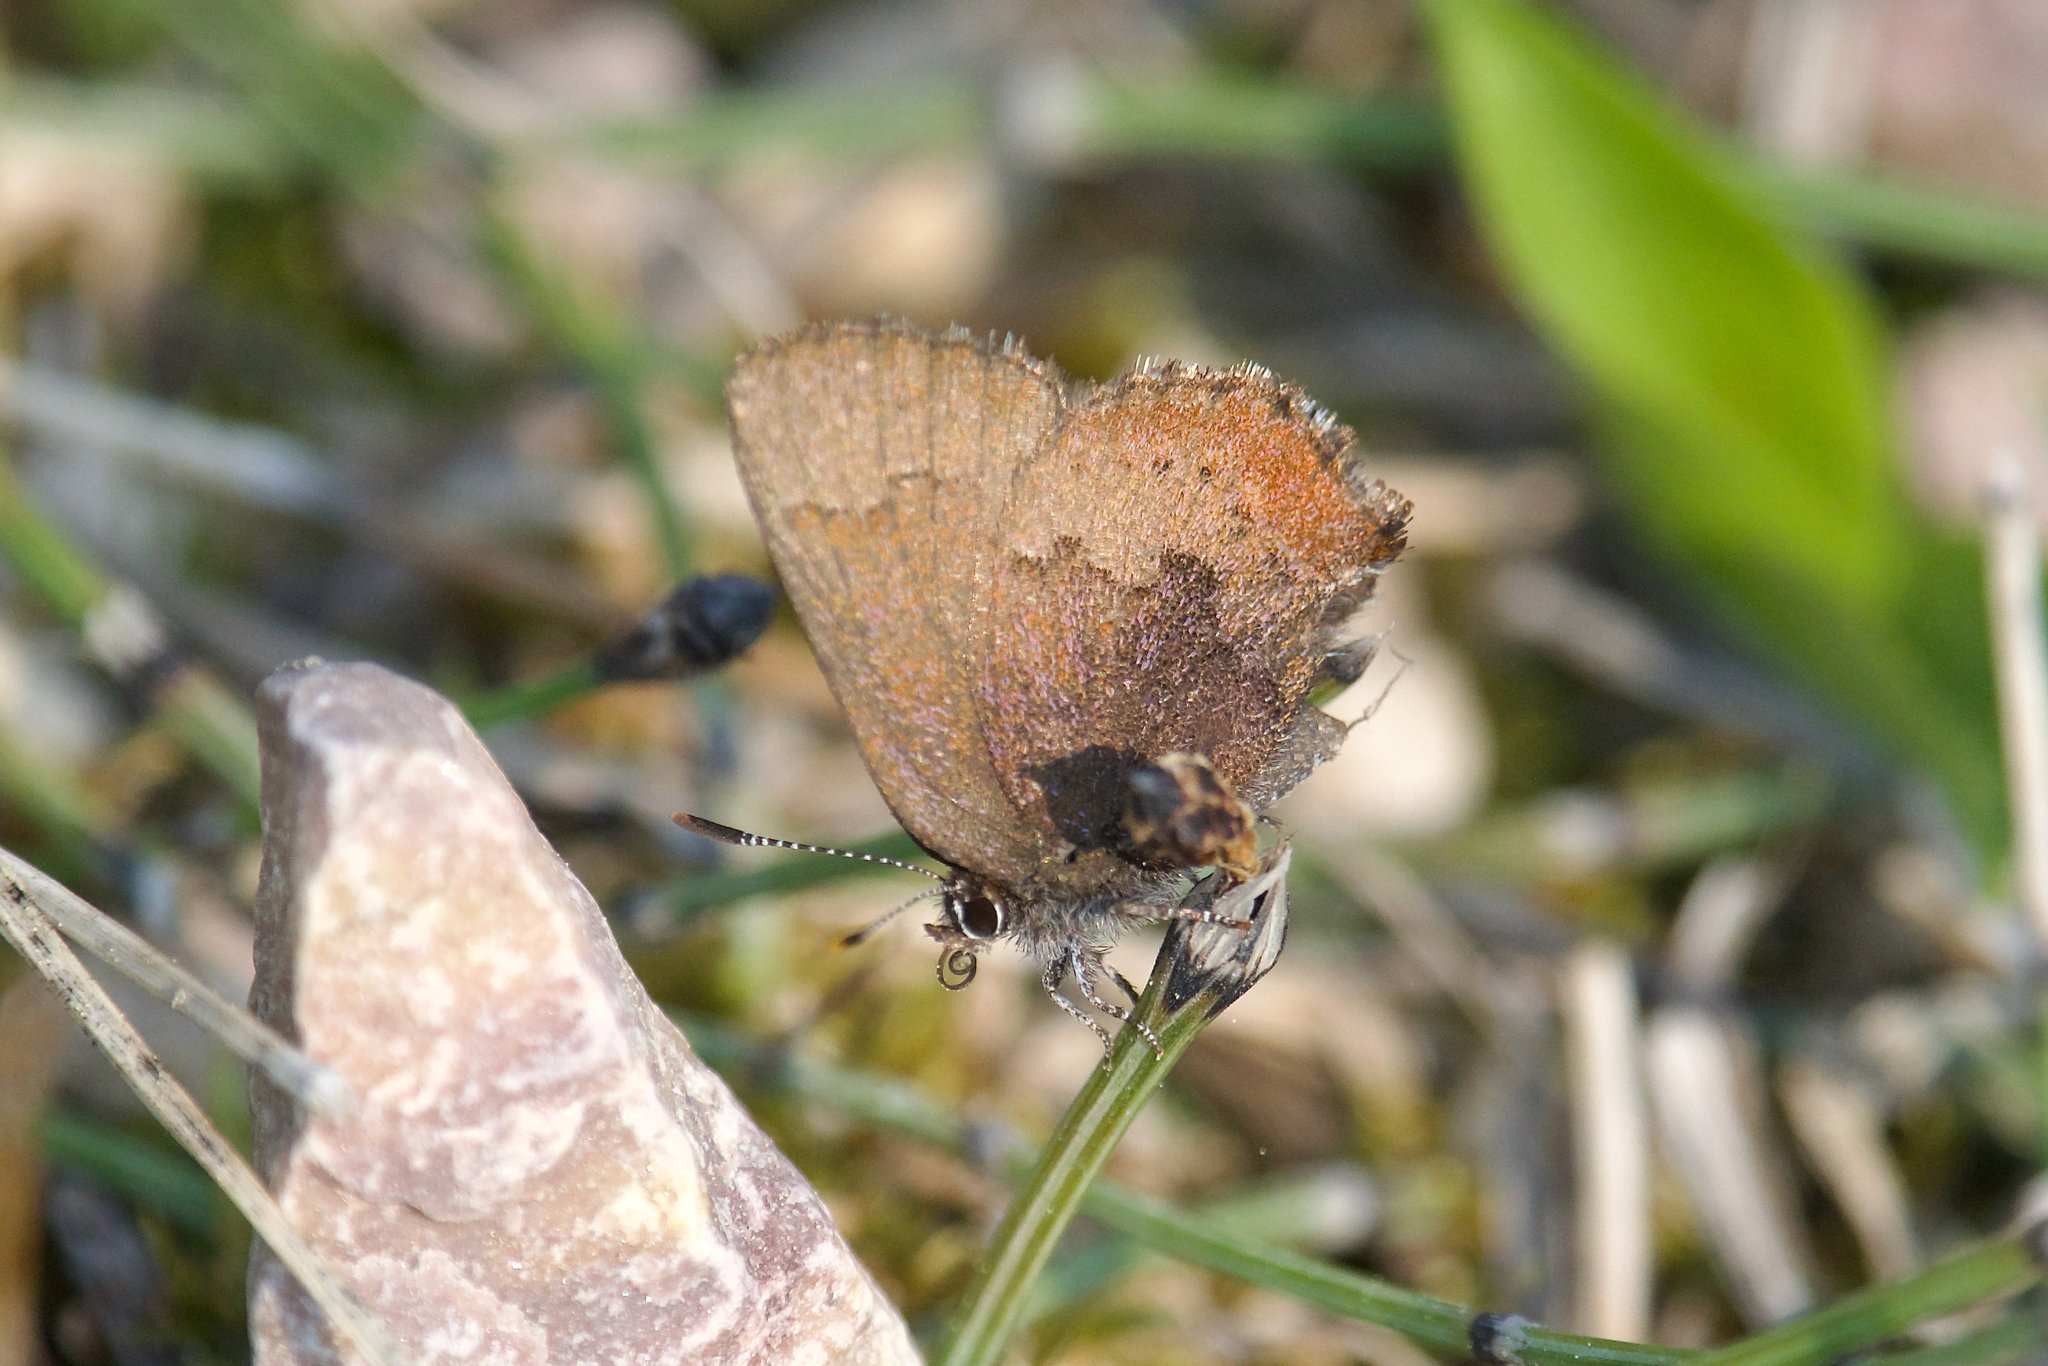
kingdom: Animalia
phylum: Arthropoda
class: Insecta
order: Lepidoptera
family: Lycaenidae
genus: Incisalia
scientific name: Incisalia irioides
